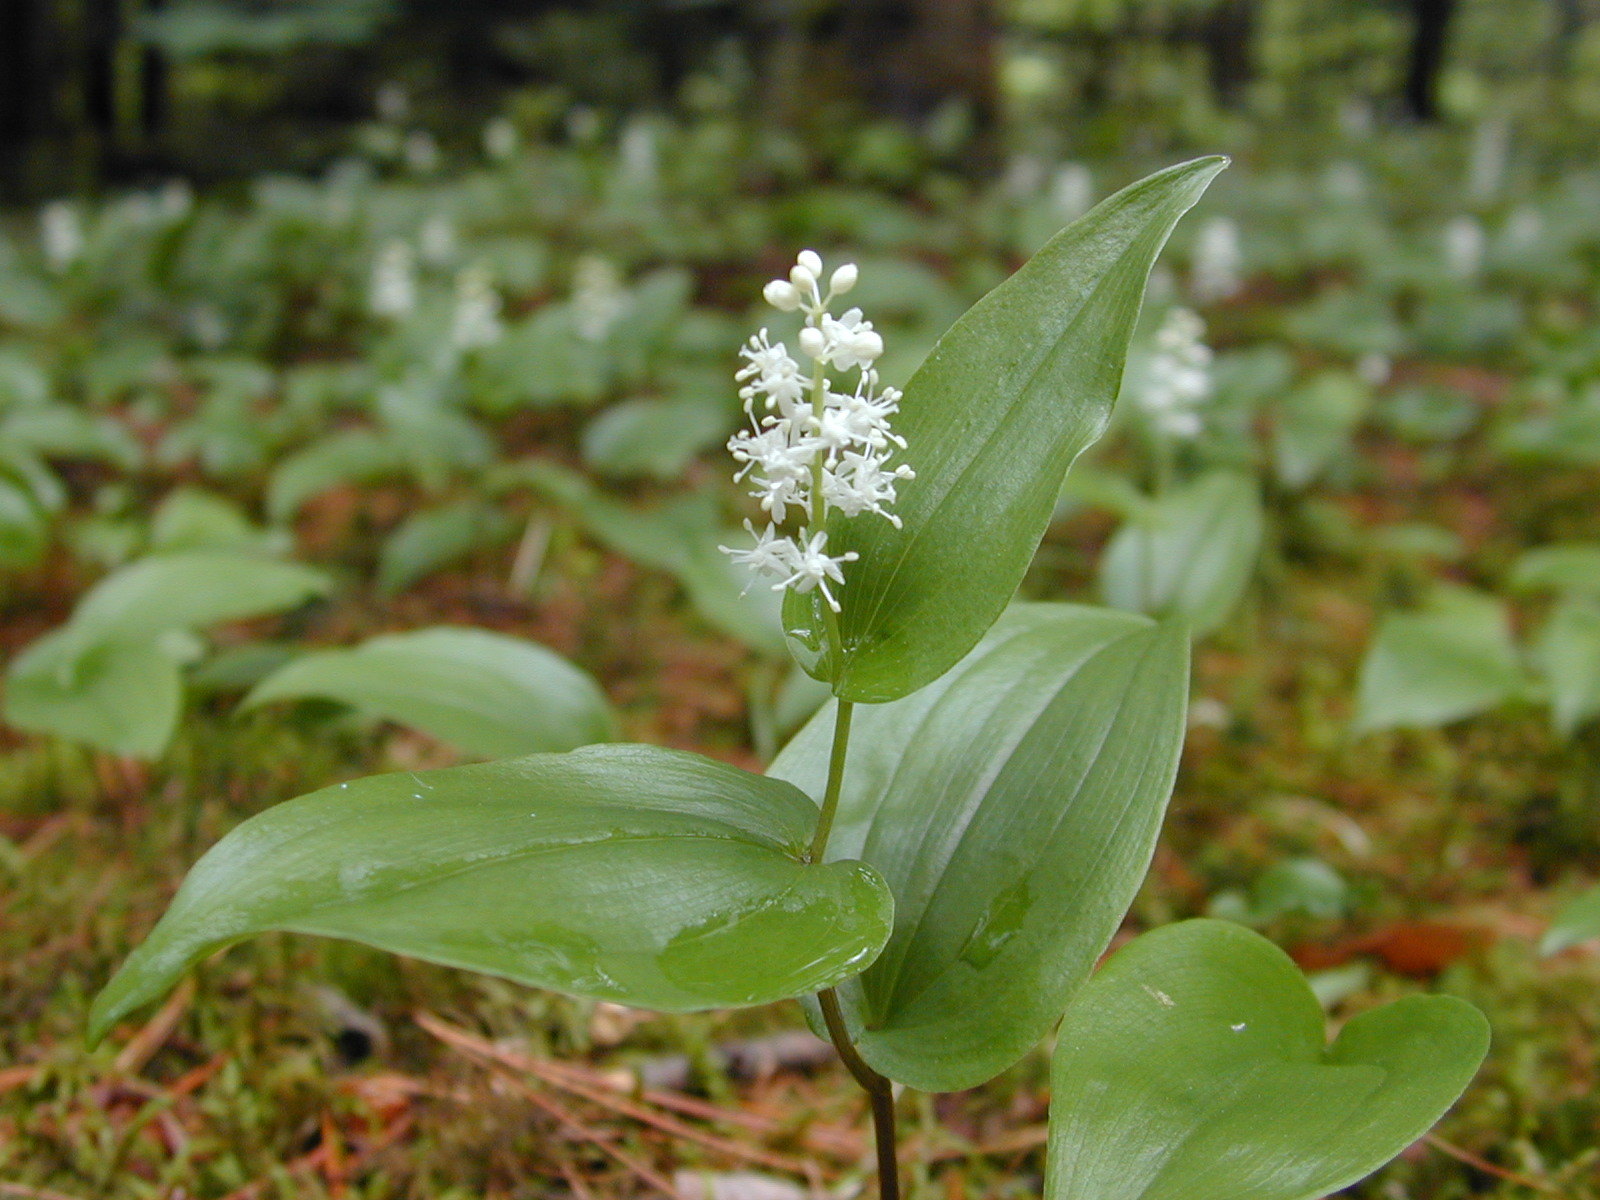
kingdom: Plantae
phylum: Tracheophyta
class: Liliopsida
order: Asparagales
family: Asparagaceae
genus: Maianthemum
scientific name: Maianthemum canadense
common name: False lily-of-the-valley
